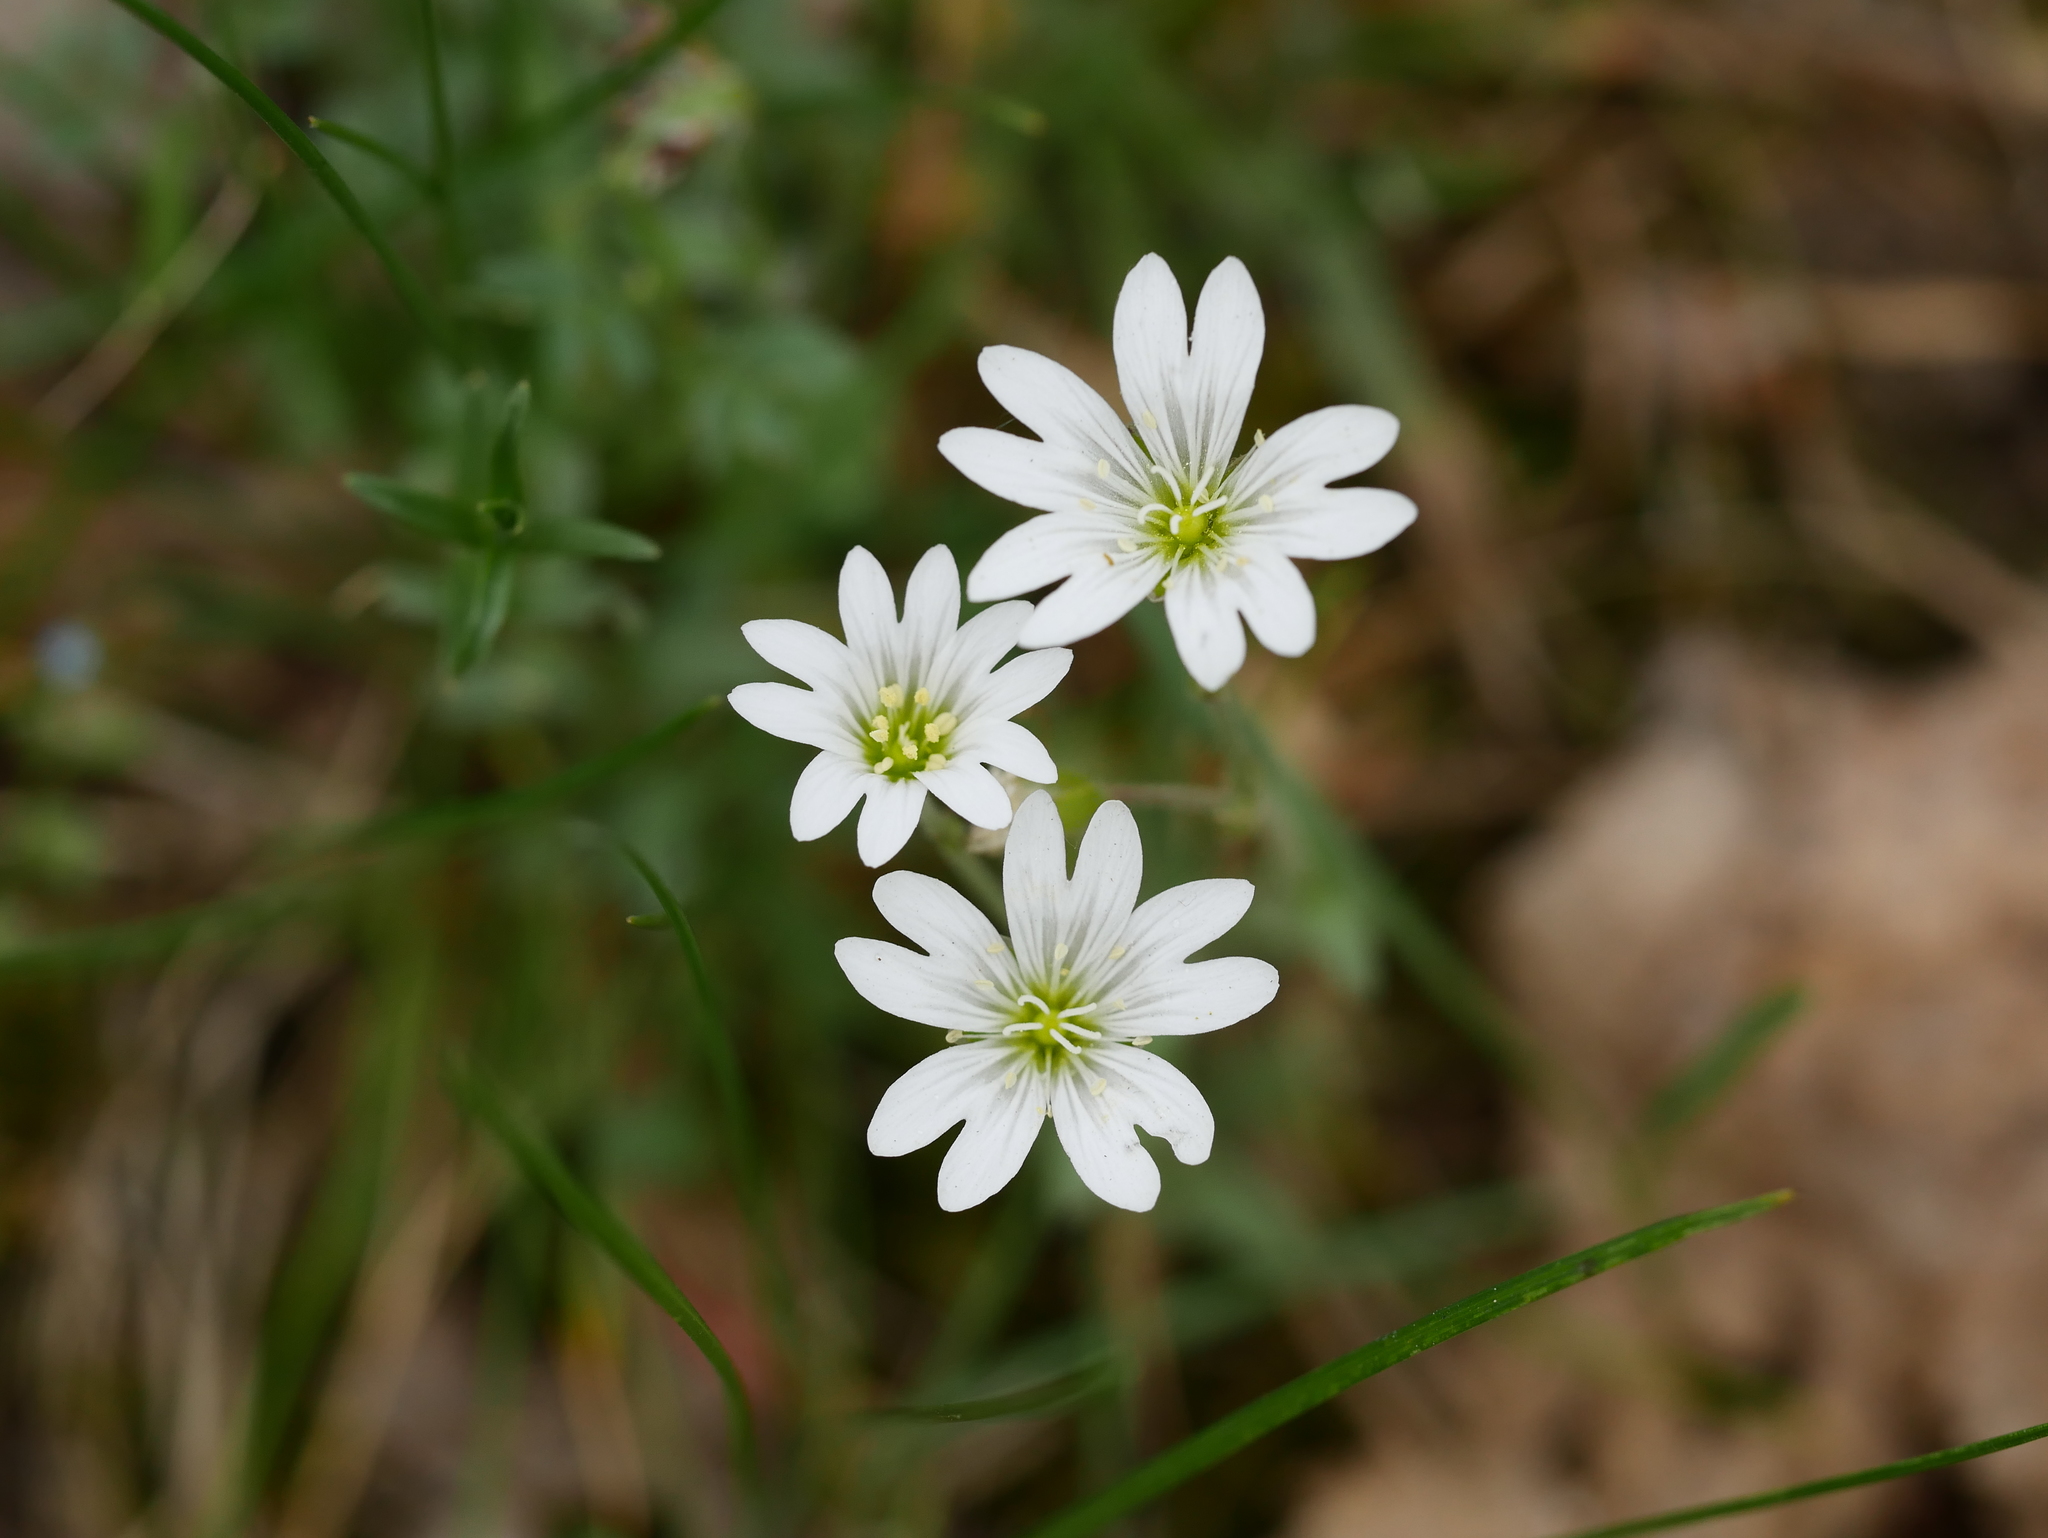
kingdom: Plantae
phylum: Tracheophyta
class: Magnoliopsida
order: Caryophyllales
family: Caryophyllaceae
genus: Cerastium
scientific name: Cerastium arvense
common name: Field mouse-ear
